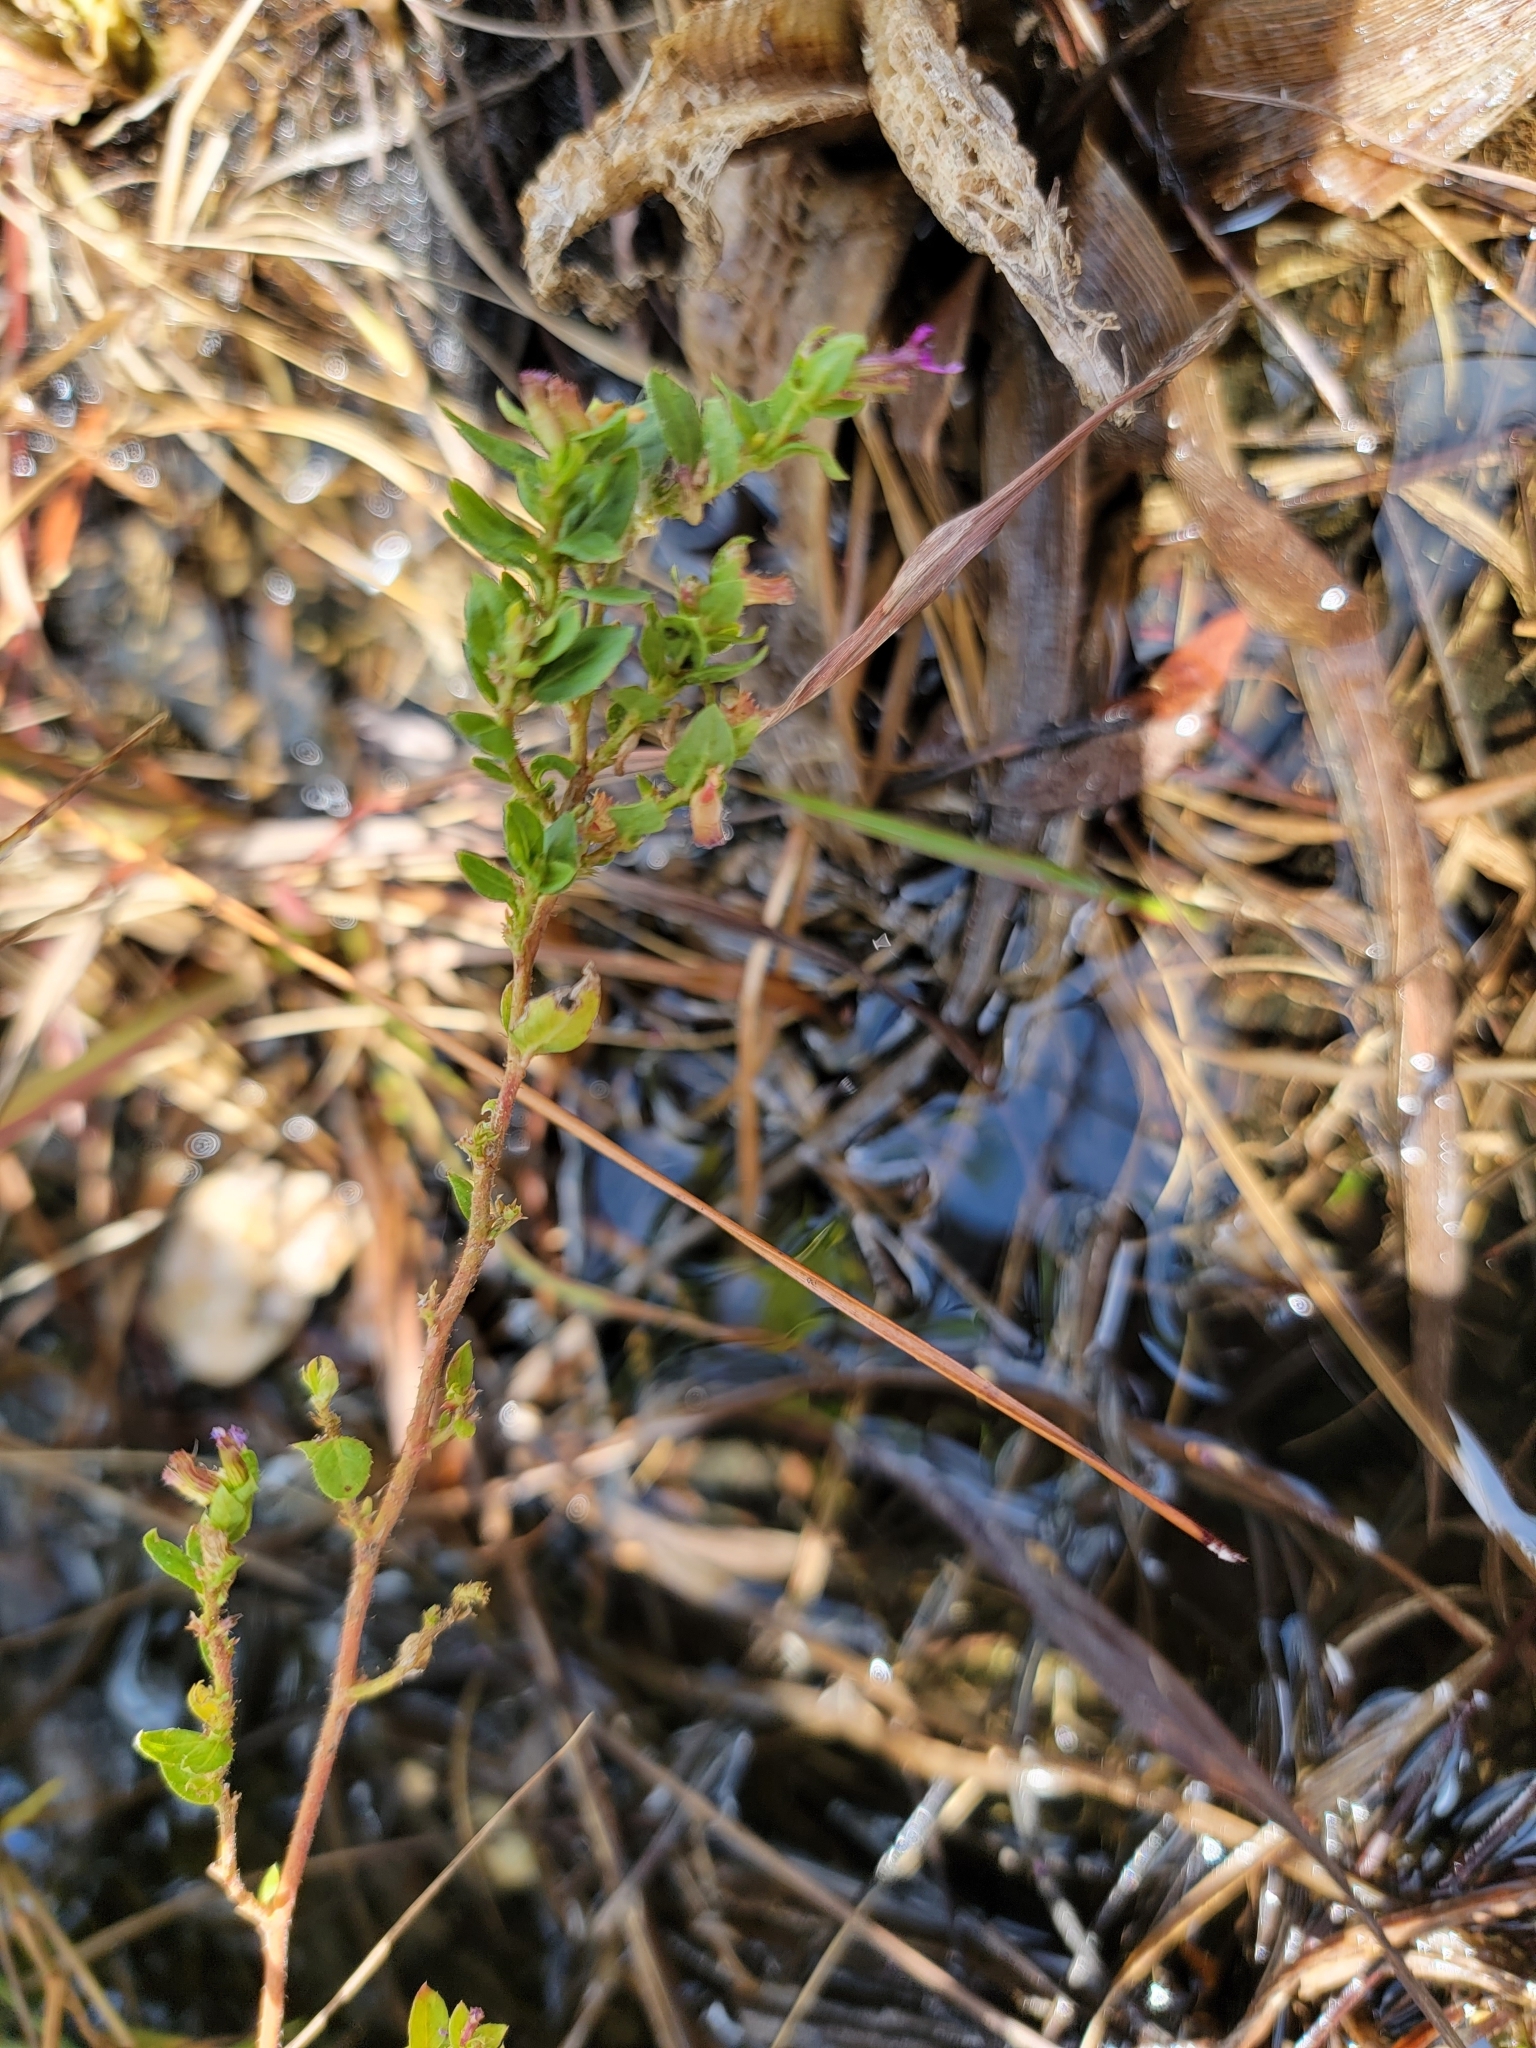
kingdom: Plantae
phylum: Tracheophyta
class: Magnoliopsida
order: Myrtales
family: Lythraceae
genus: Cuphea
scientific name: Cuphea carthagenensis
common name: Colombian waxweed
